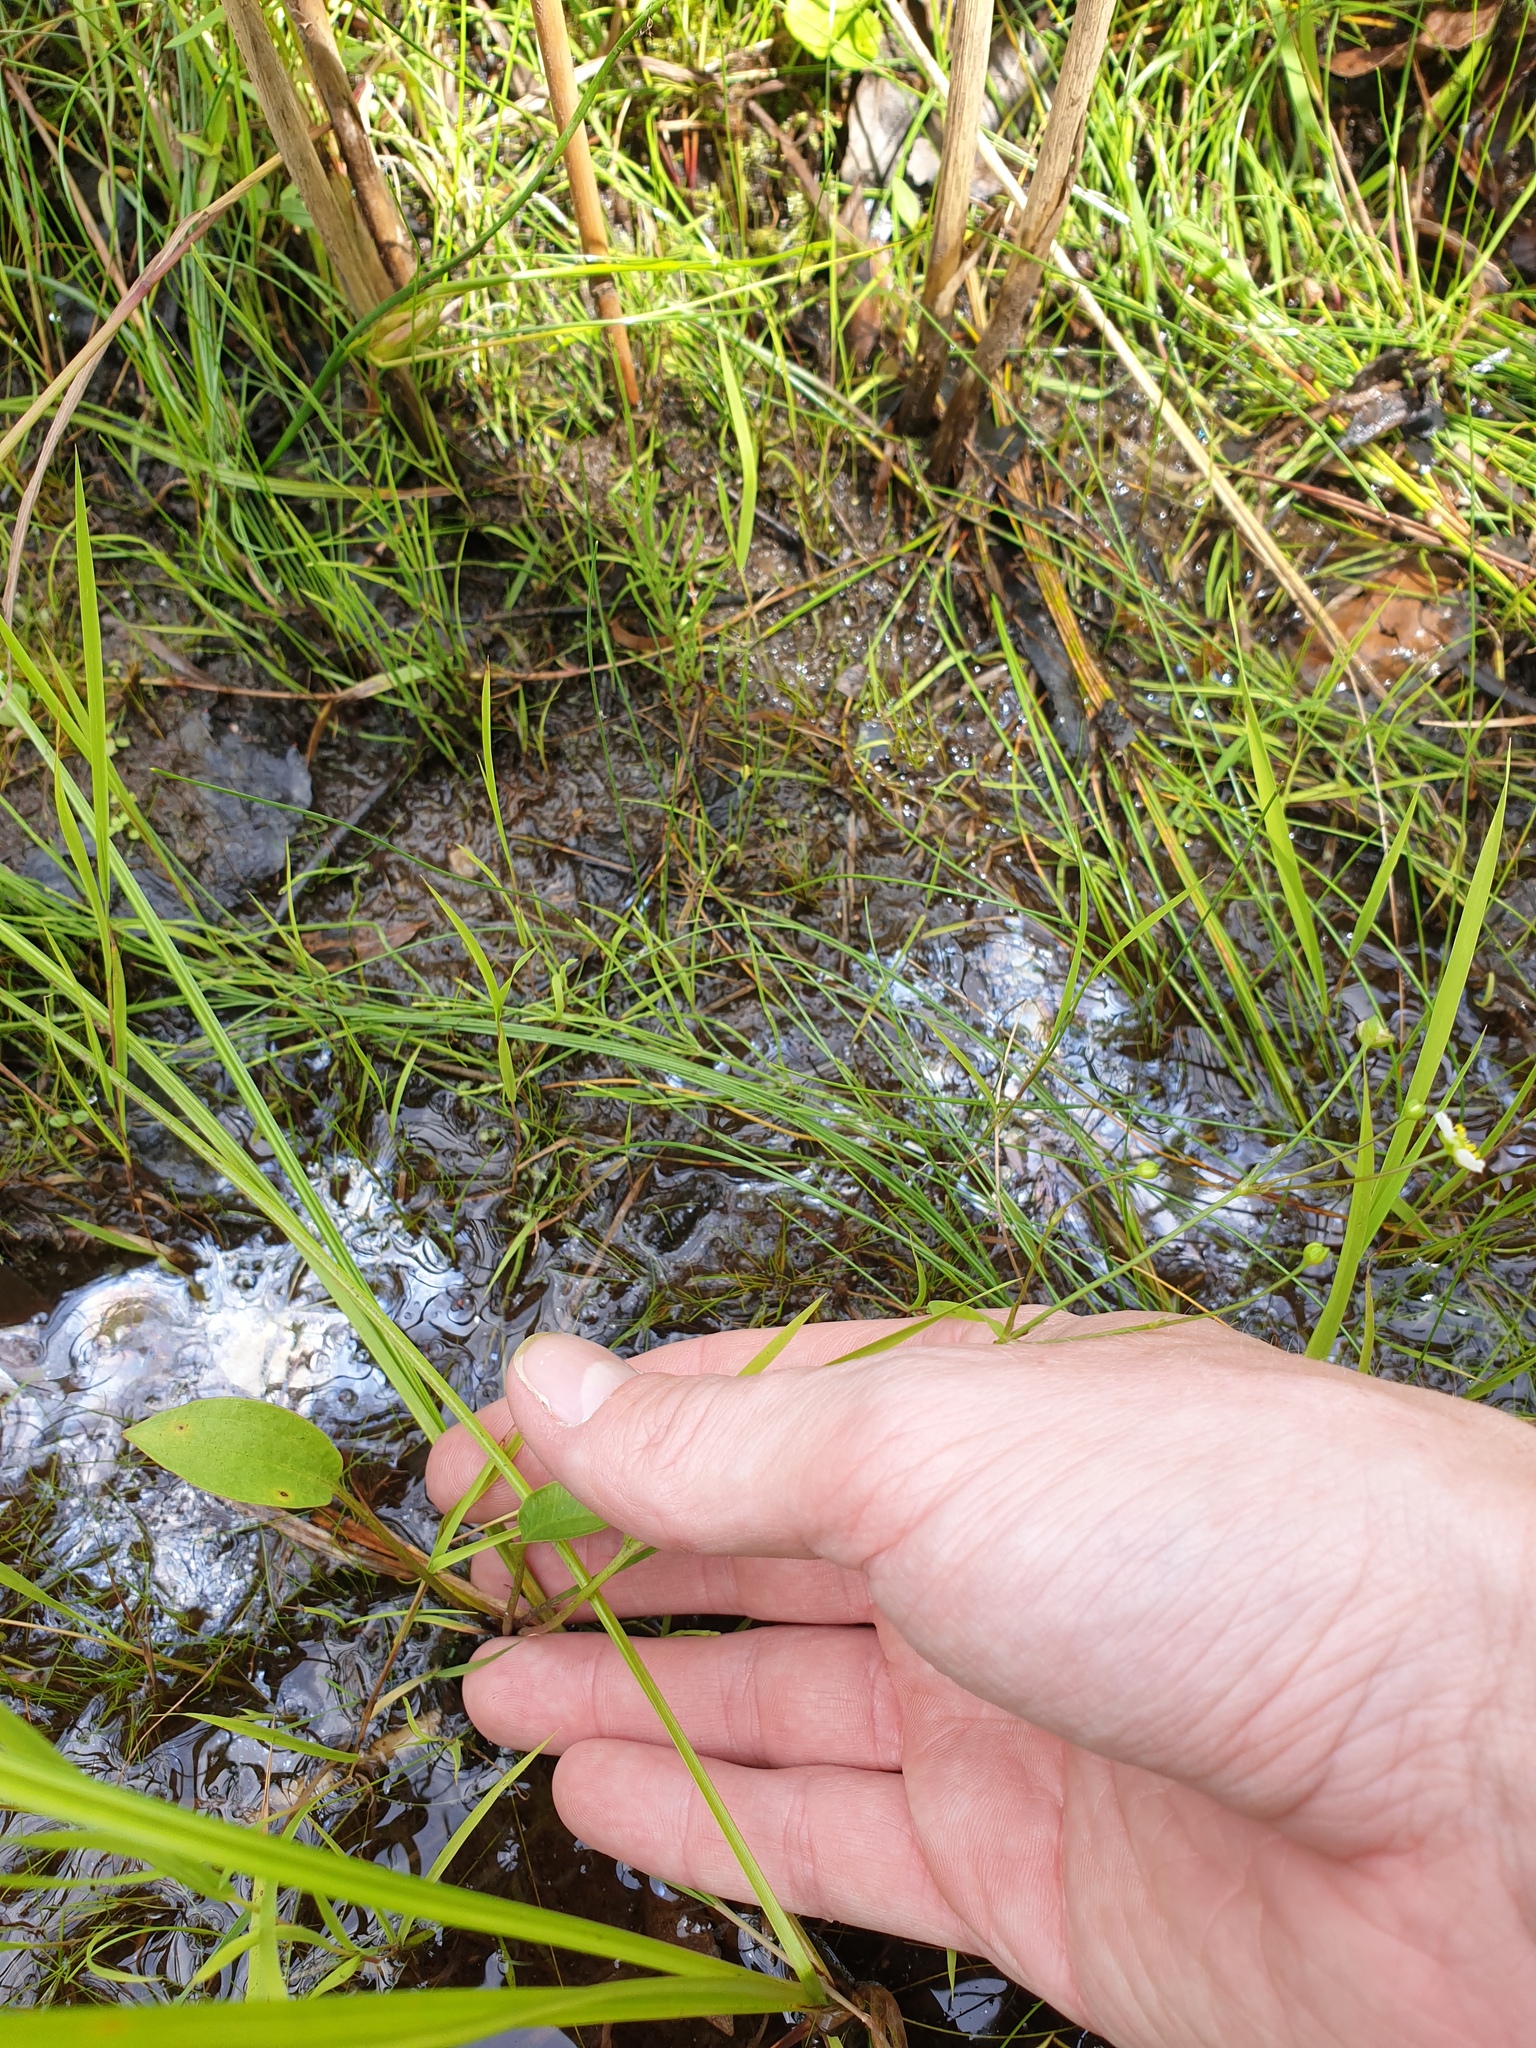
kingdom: Plantae
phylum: Tracheophyta
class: Liliopsida
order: Alismatales
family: Alismataceae
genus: Alisma
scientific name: Alisma triviale
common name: Northern water-plantain
